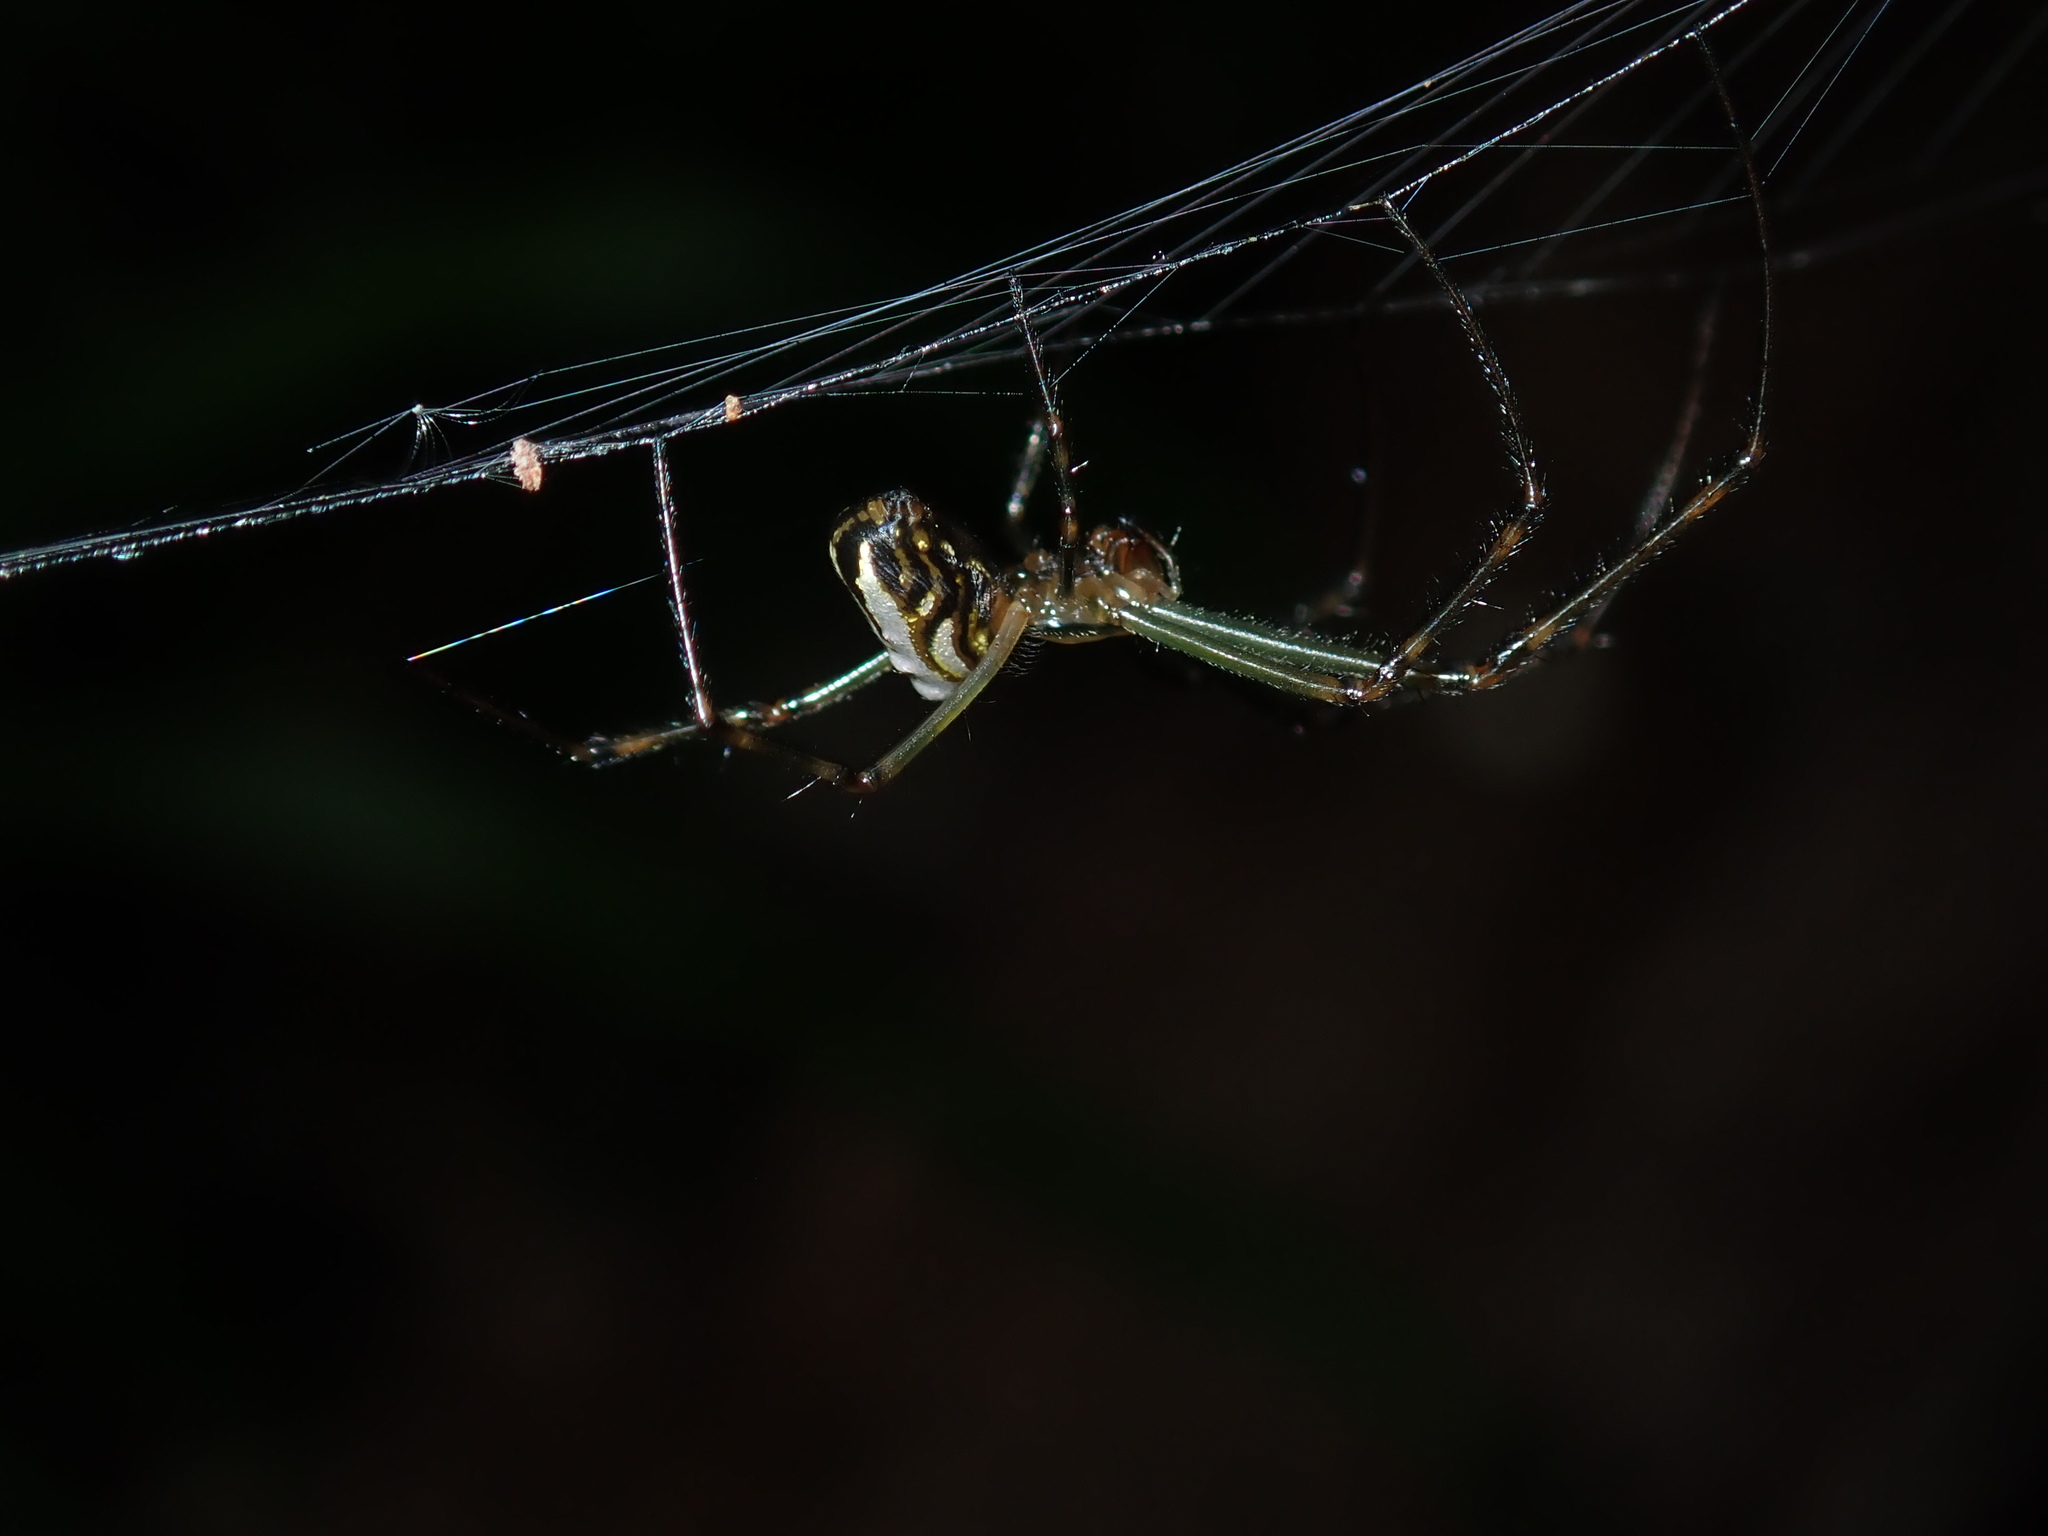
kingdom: Animalia
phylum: Arthropoda
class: Arachnida
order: Araneae
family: Tetragnathidae
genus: Leucauge
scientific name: Leucauge dromedaria
